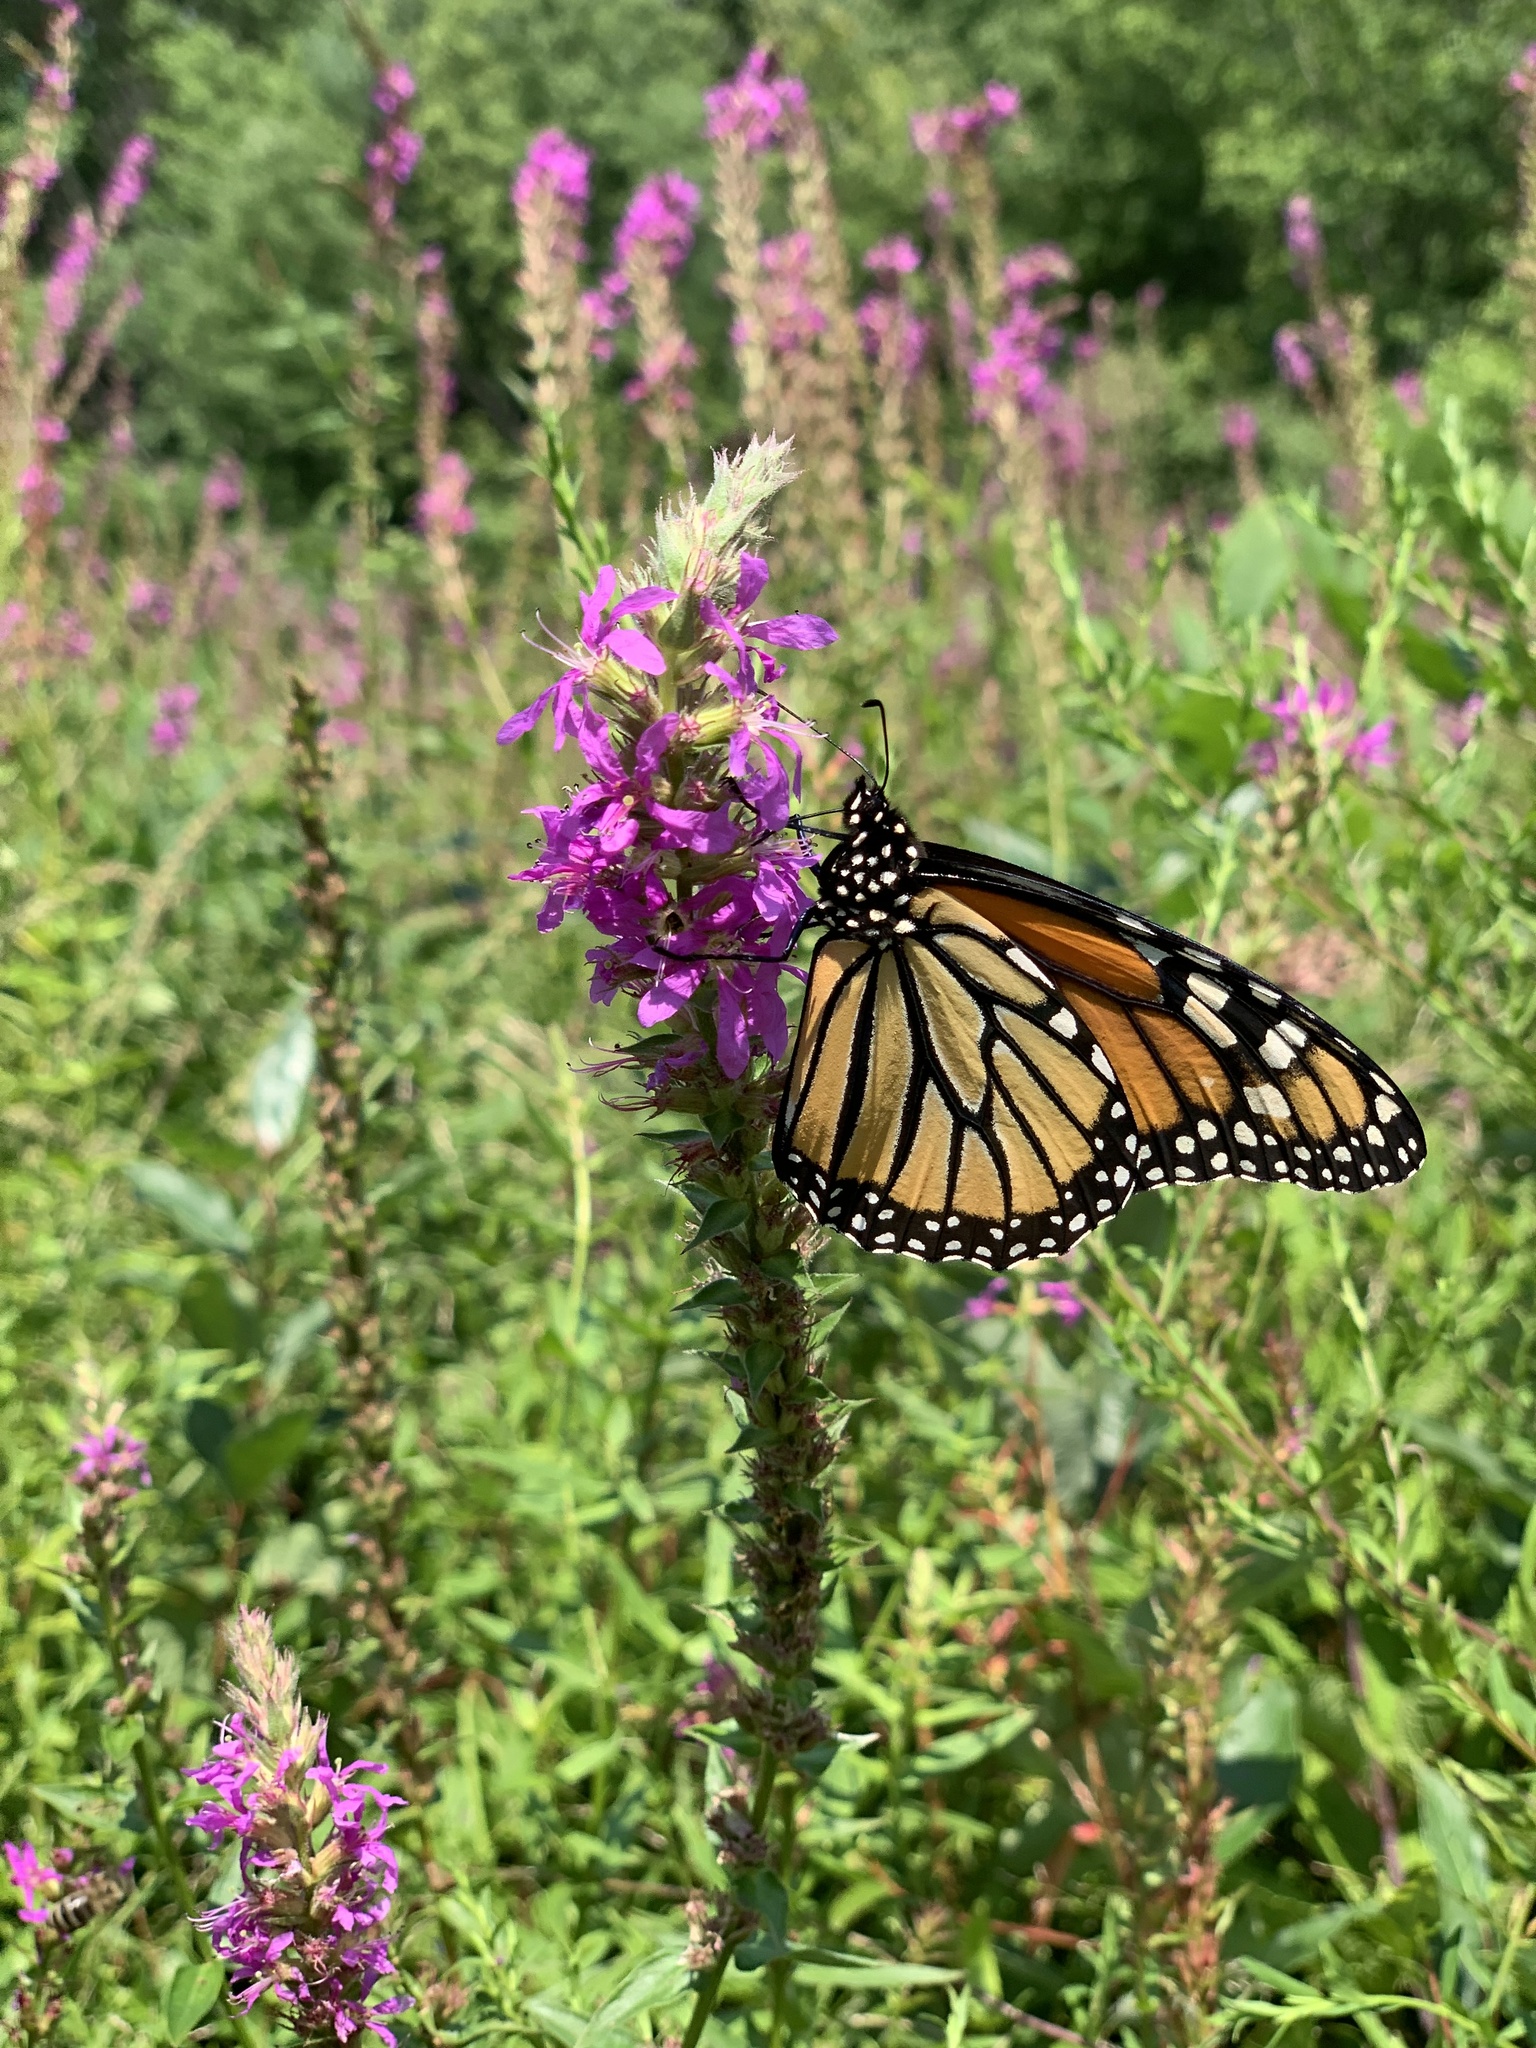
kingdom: Animalia
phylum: Arthropoda
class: Insecta
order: Lepidoptera
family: Nymphalidae
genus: Danaus
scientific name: Danaus plexippus
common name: Monarch
